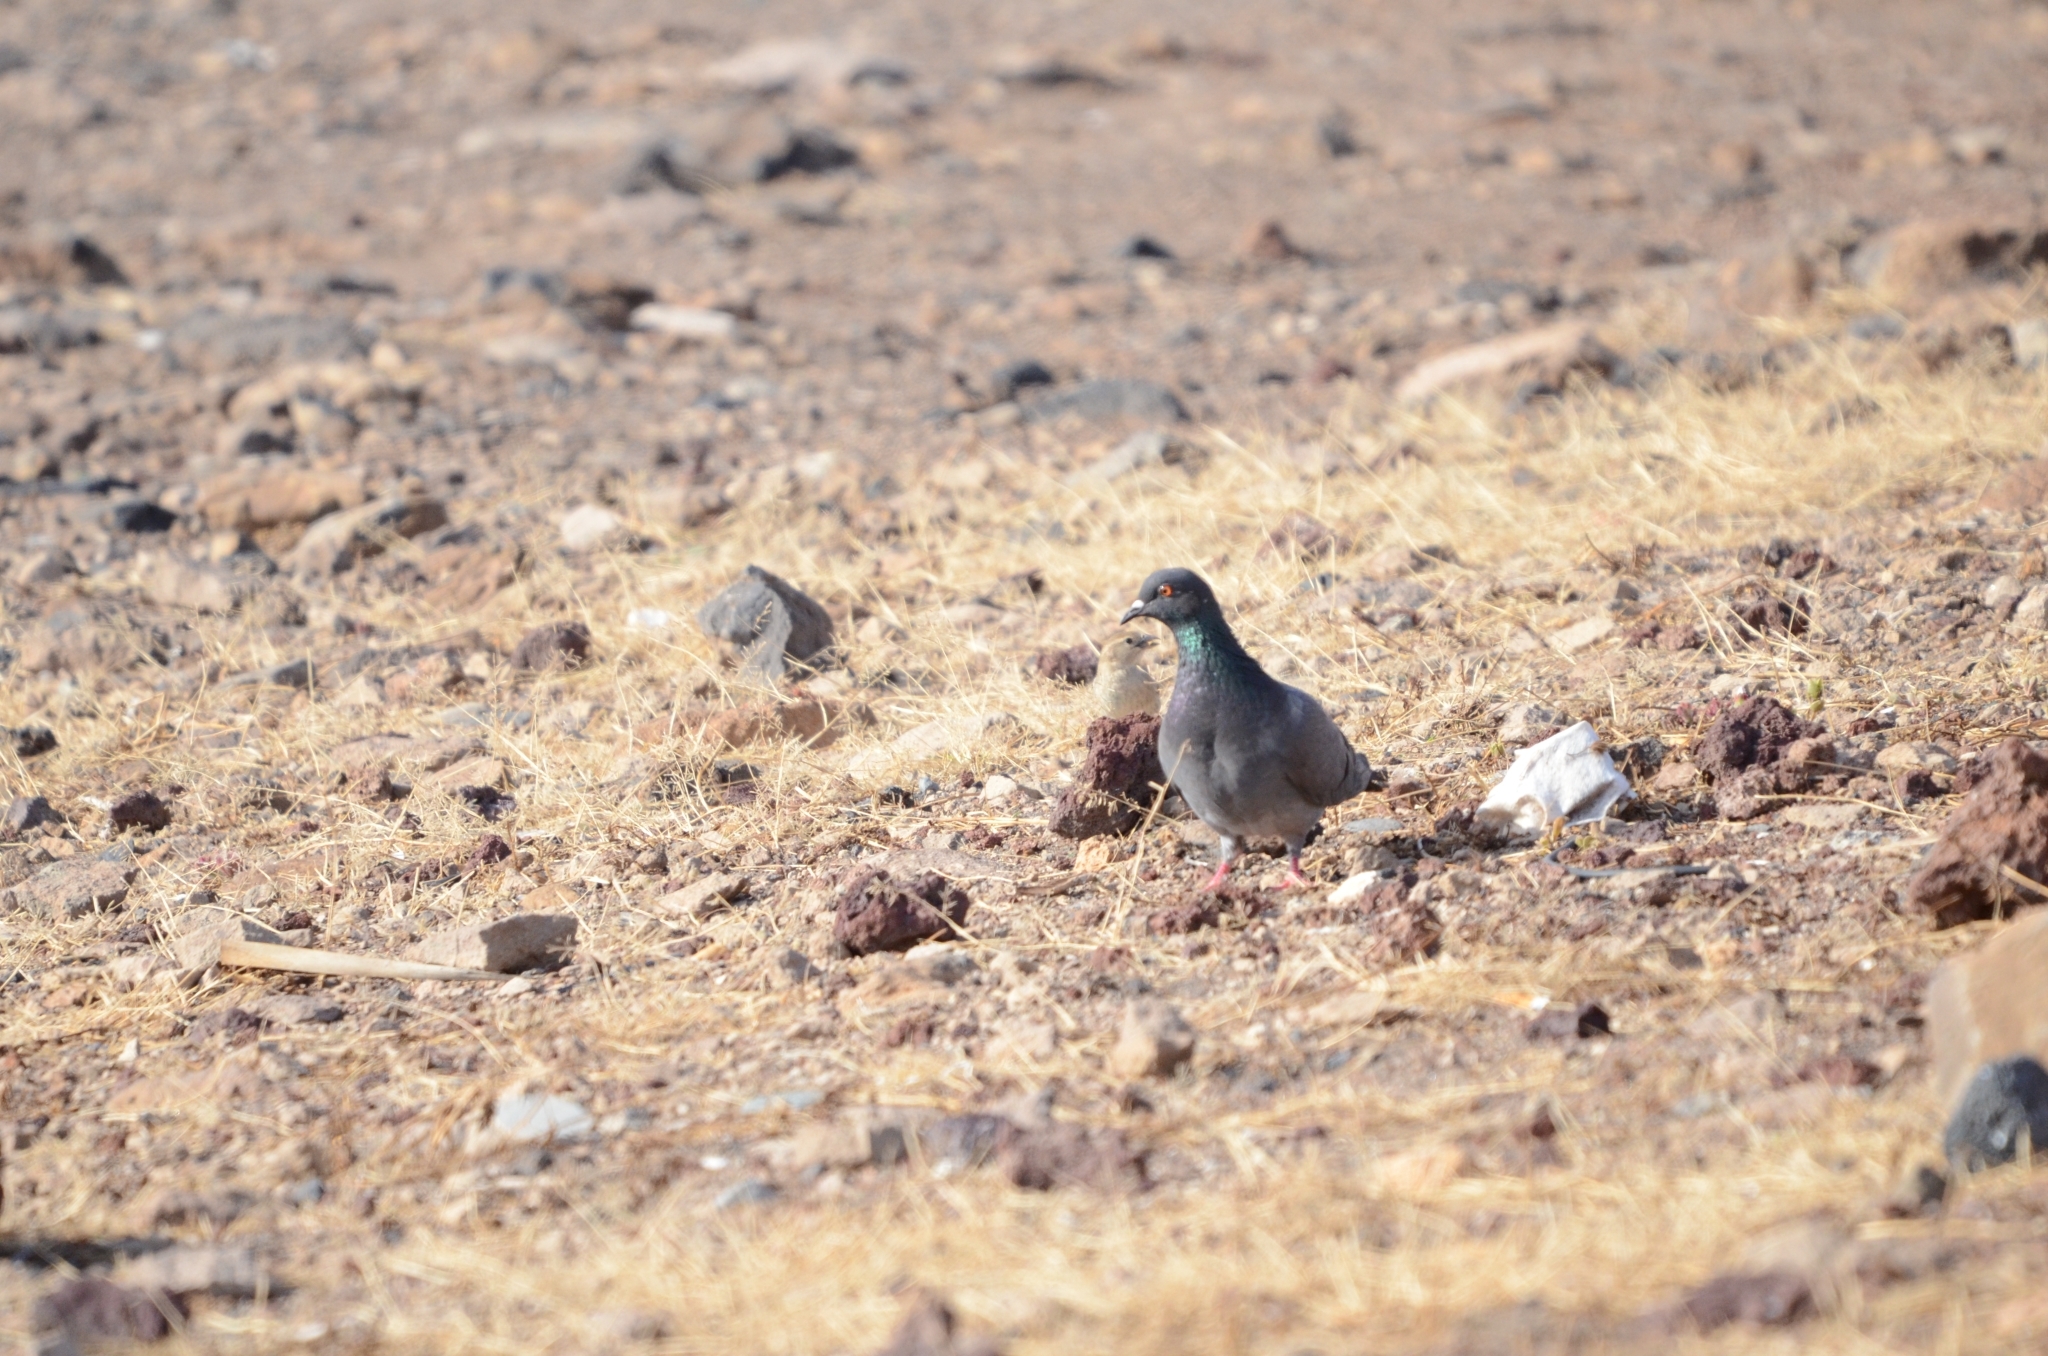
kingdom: Animalia
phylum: Chordata
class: Aves
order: Columbiformes
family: Columbidae
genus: Columba
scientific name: Columba livia
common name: Rock pigeon
